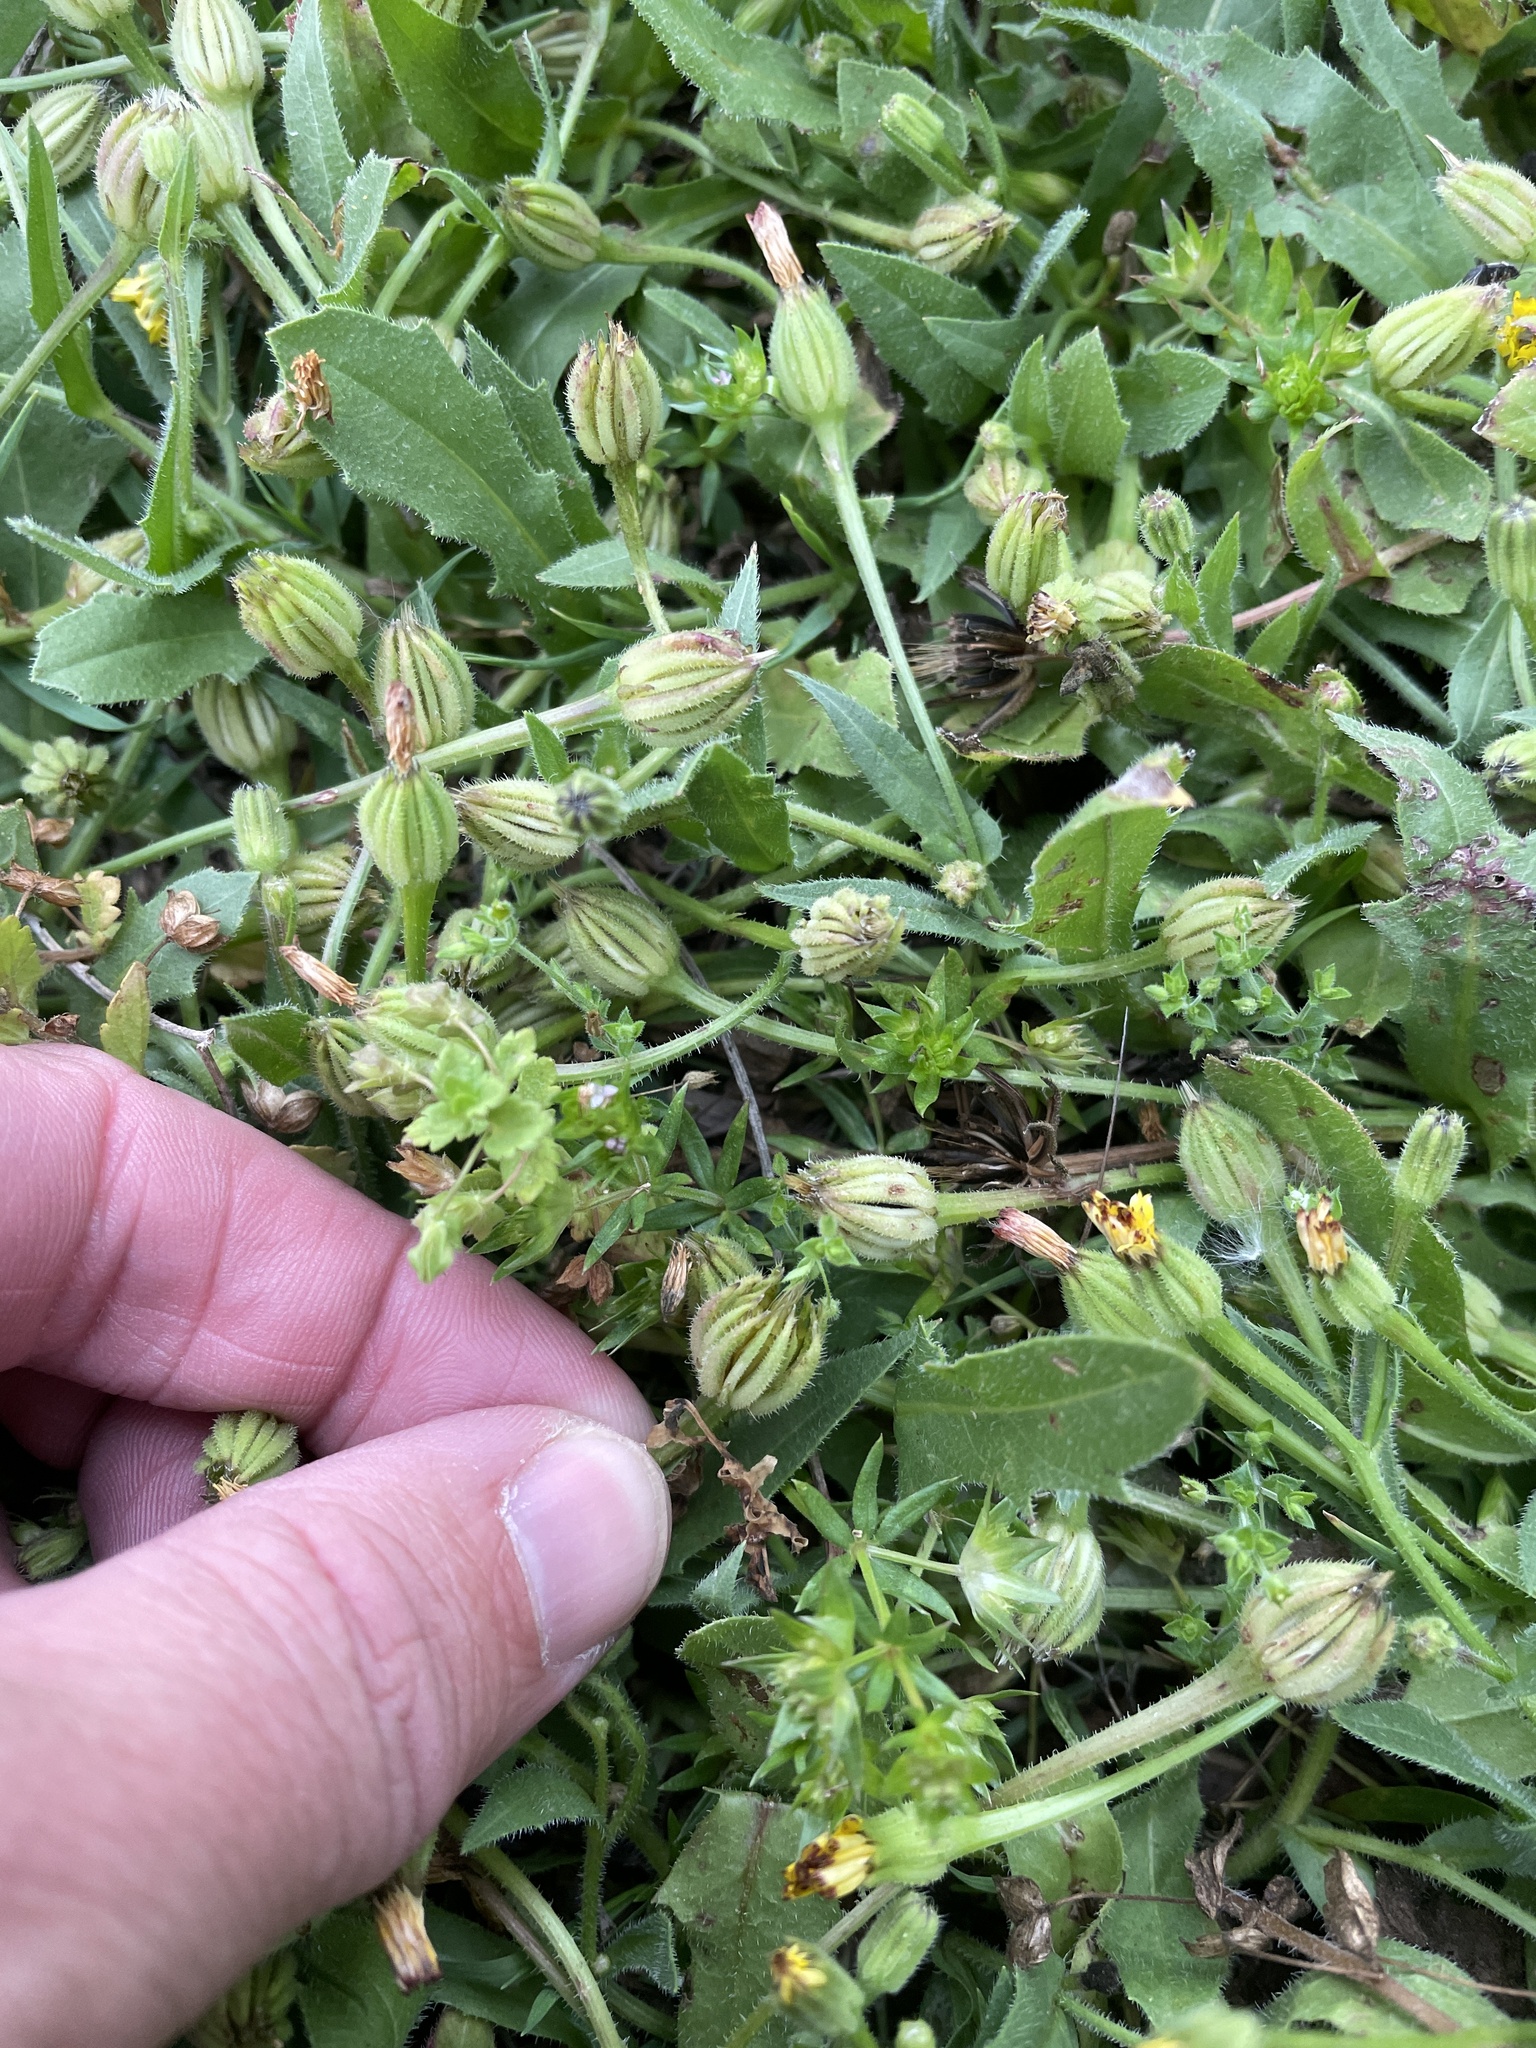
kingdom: Plantae
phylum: Tracheophyta
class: Magnoliopsida
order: Asterales
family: Asteraceae
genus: Hedypnois
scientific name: Hedypnois rhagadioloides
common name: Cretan weed
